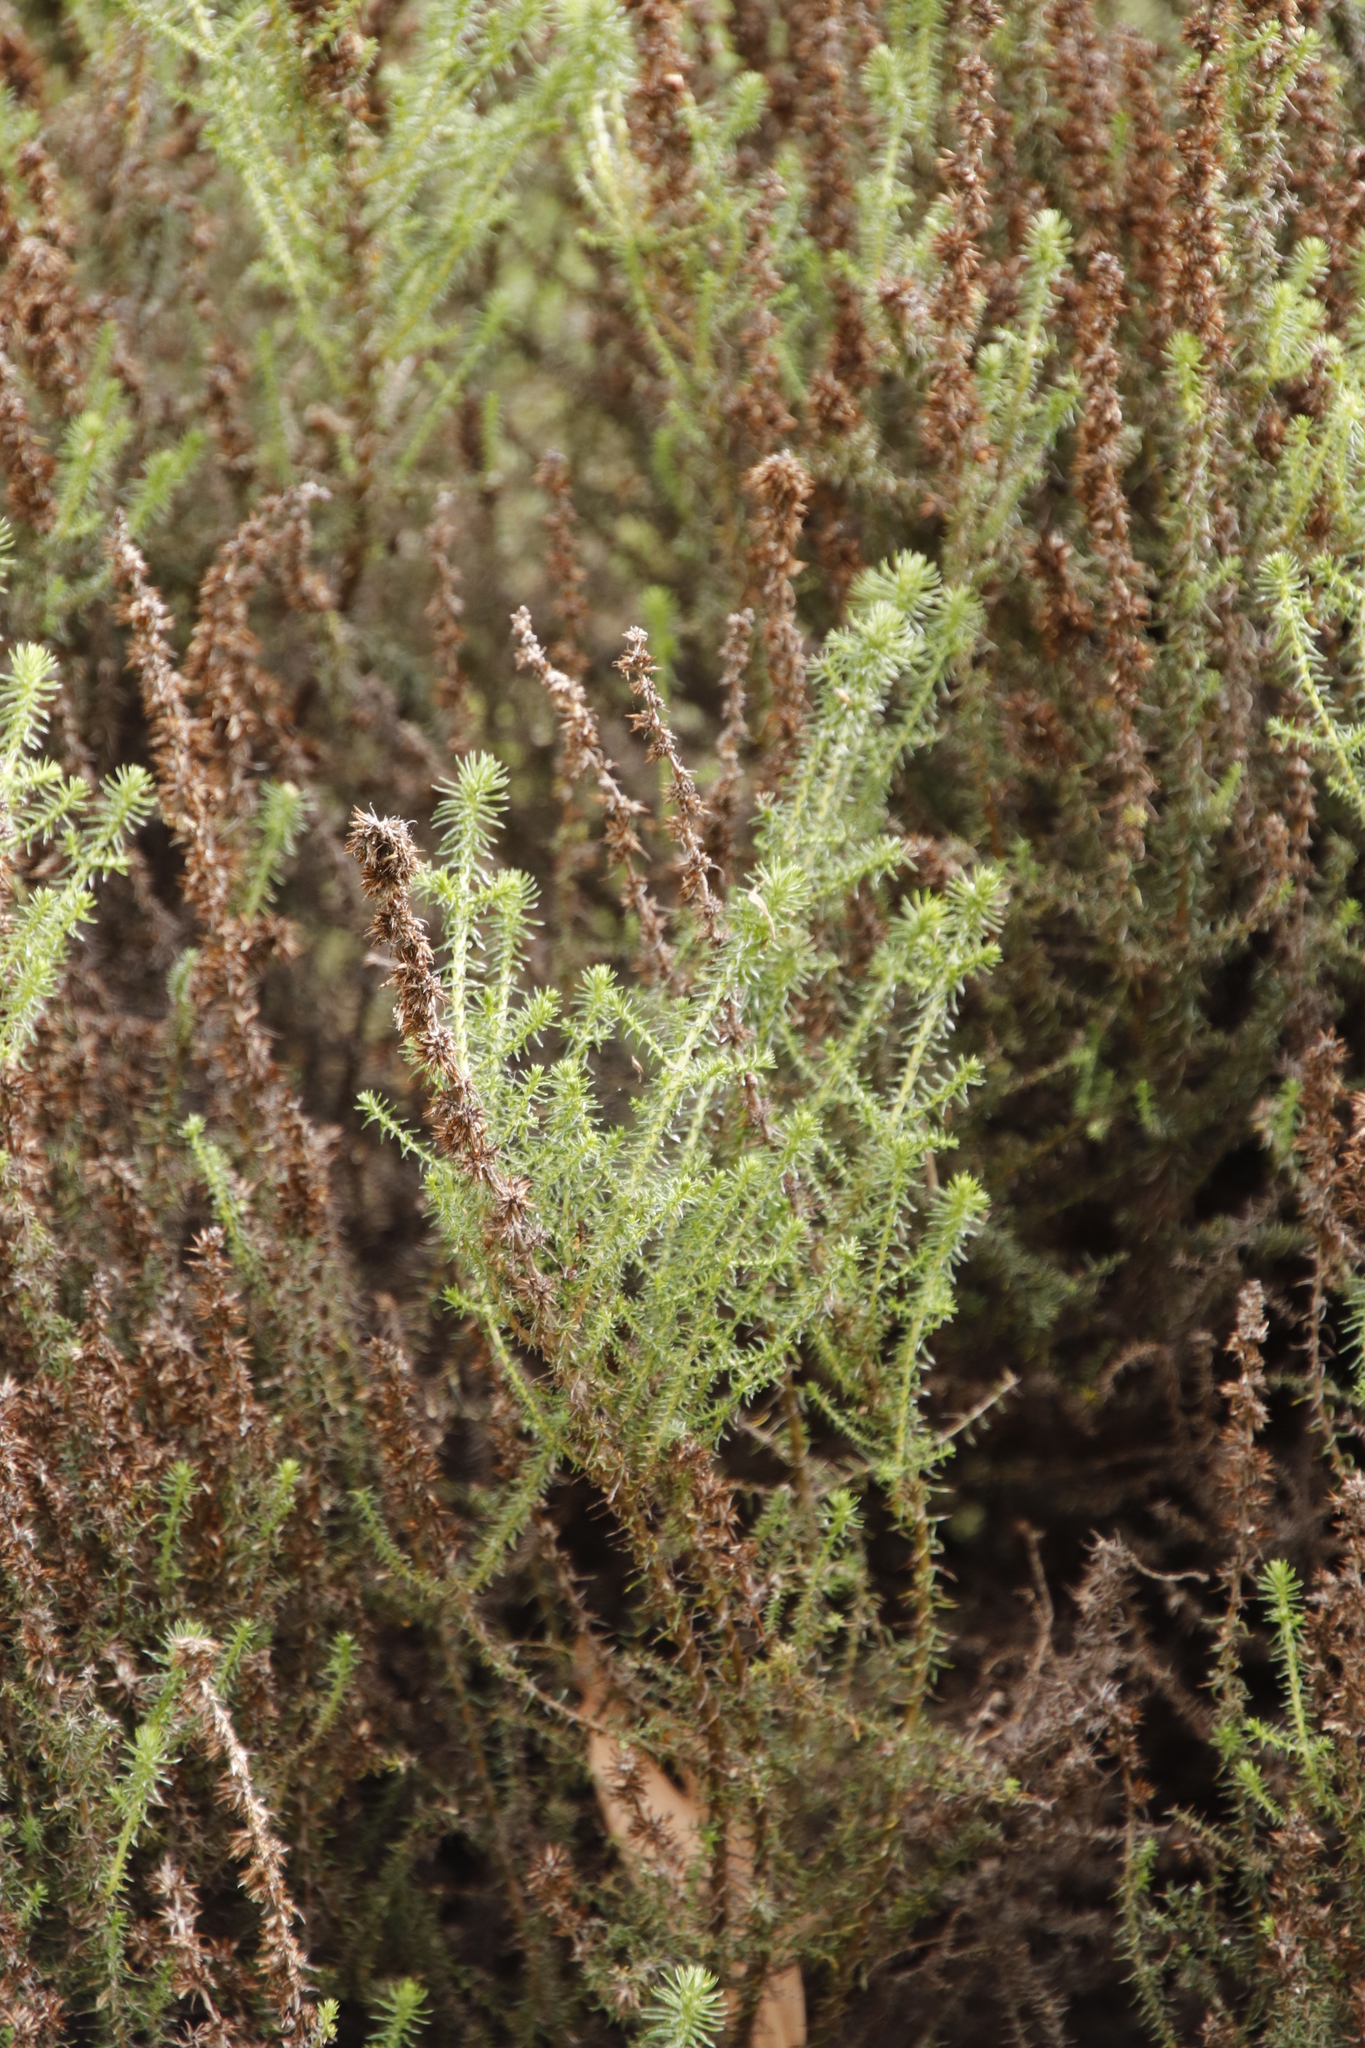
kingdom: Plantae
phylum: Tracheophyta
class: Magnoliopsida
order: Asterales
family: Asteraceae
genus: Seriphium
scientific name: Seriphium cinereum
